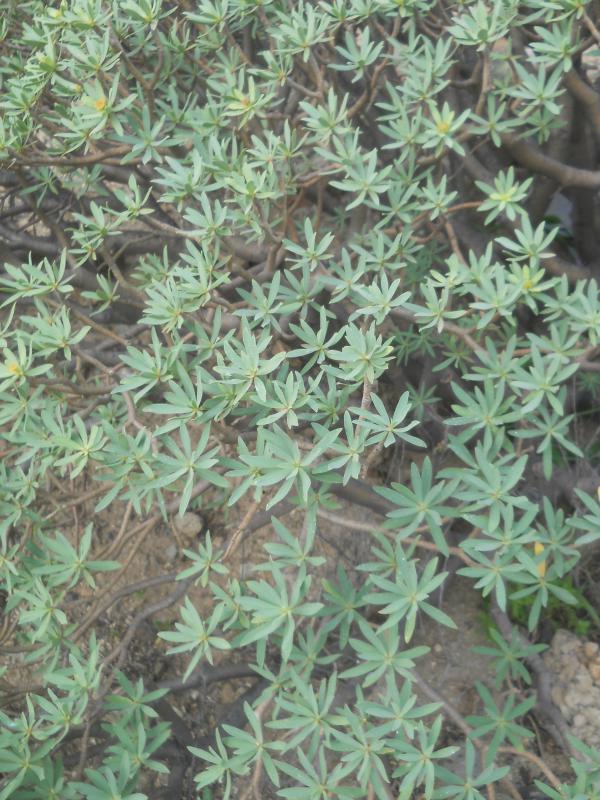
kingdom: Plantae
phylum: Tracheophyta
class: Magnoliopsida
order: Malpighiales
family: Euphorbiaceae
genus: Euphorbia
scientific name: Euphorbia balsamifera
